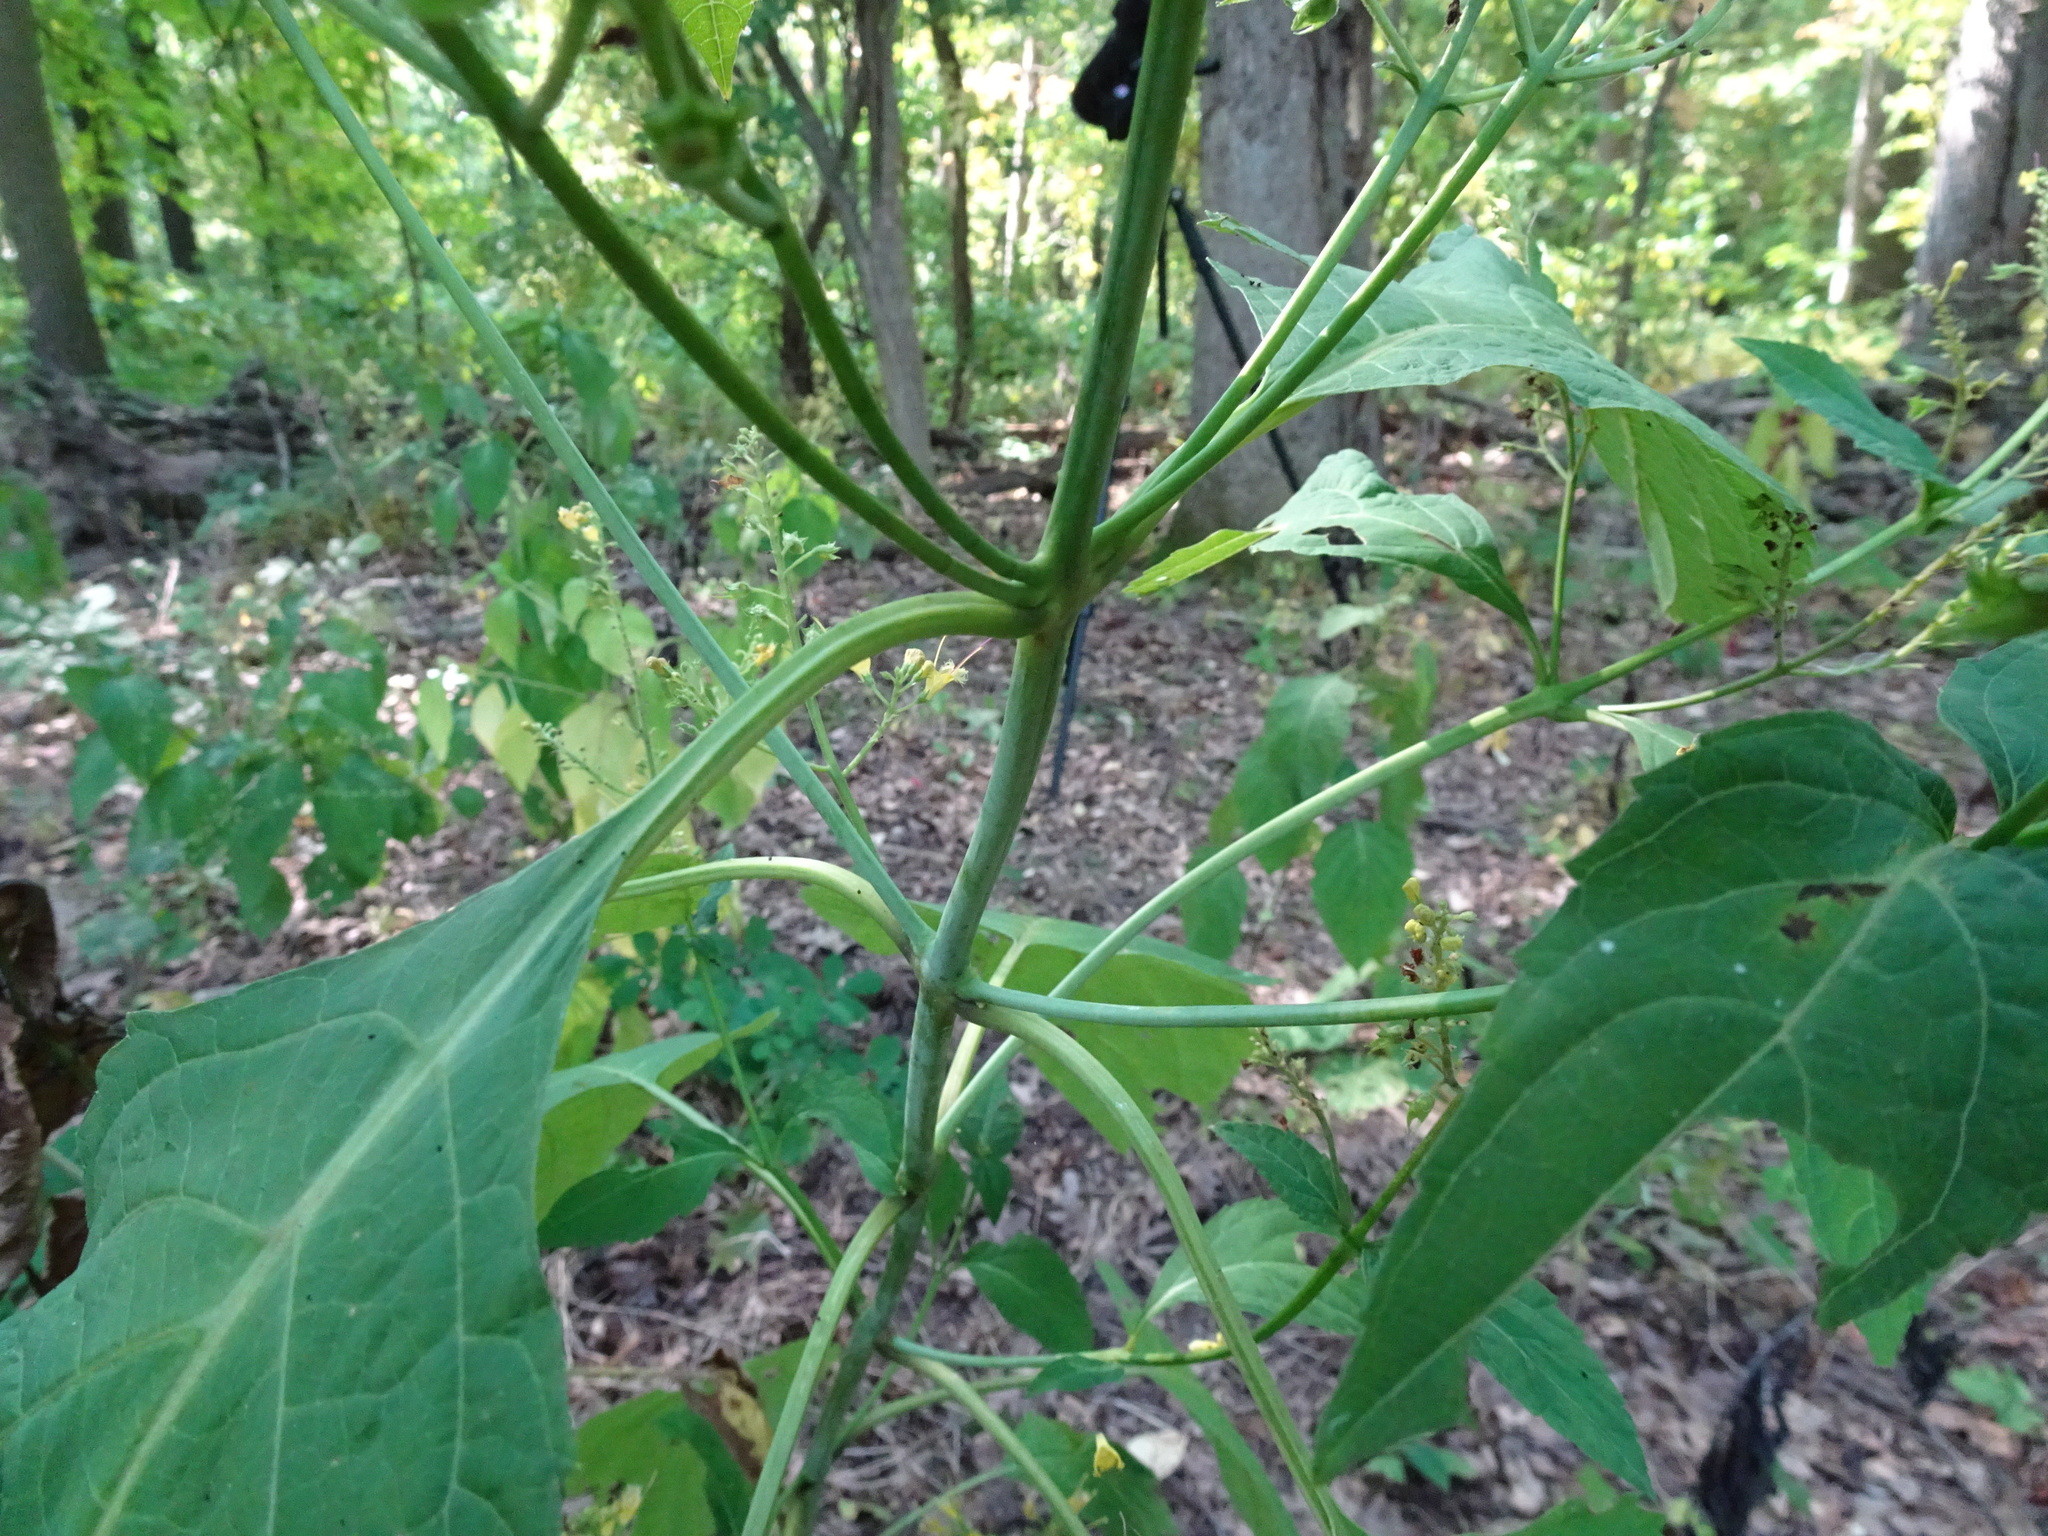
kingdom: Plantae
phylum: Tracheophyta
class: Magnoliopsida
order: Lamiales
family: Lamiaceae
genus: Collinsonia
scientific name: Collinsonia canadensis
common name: Northern horsebalm
